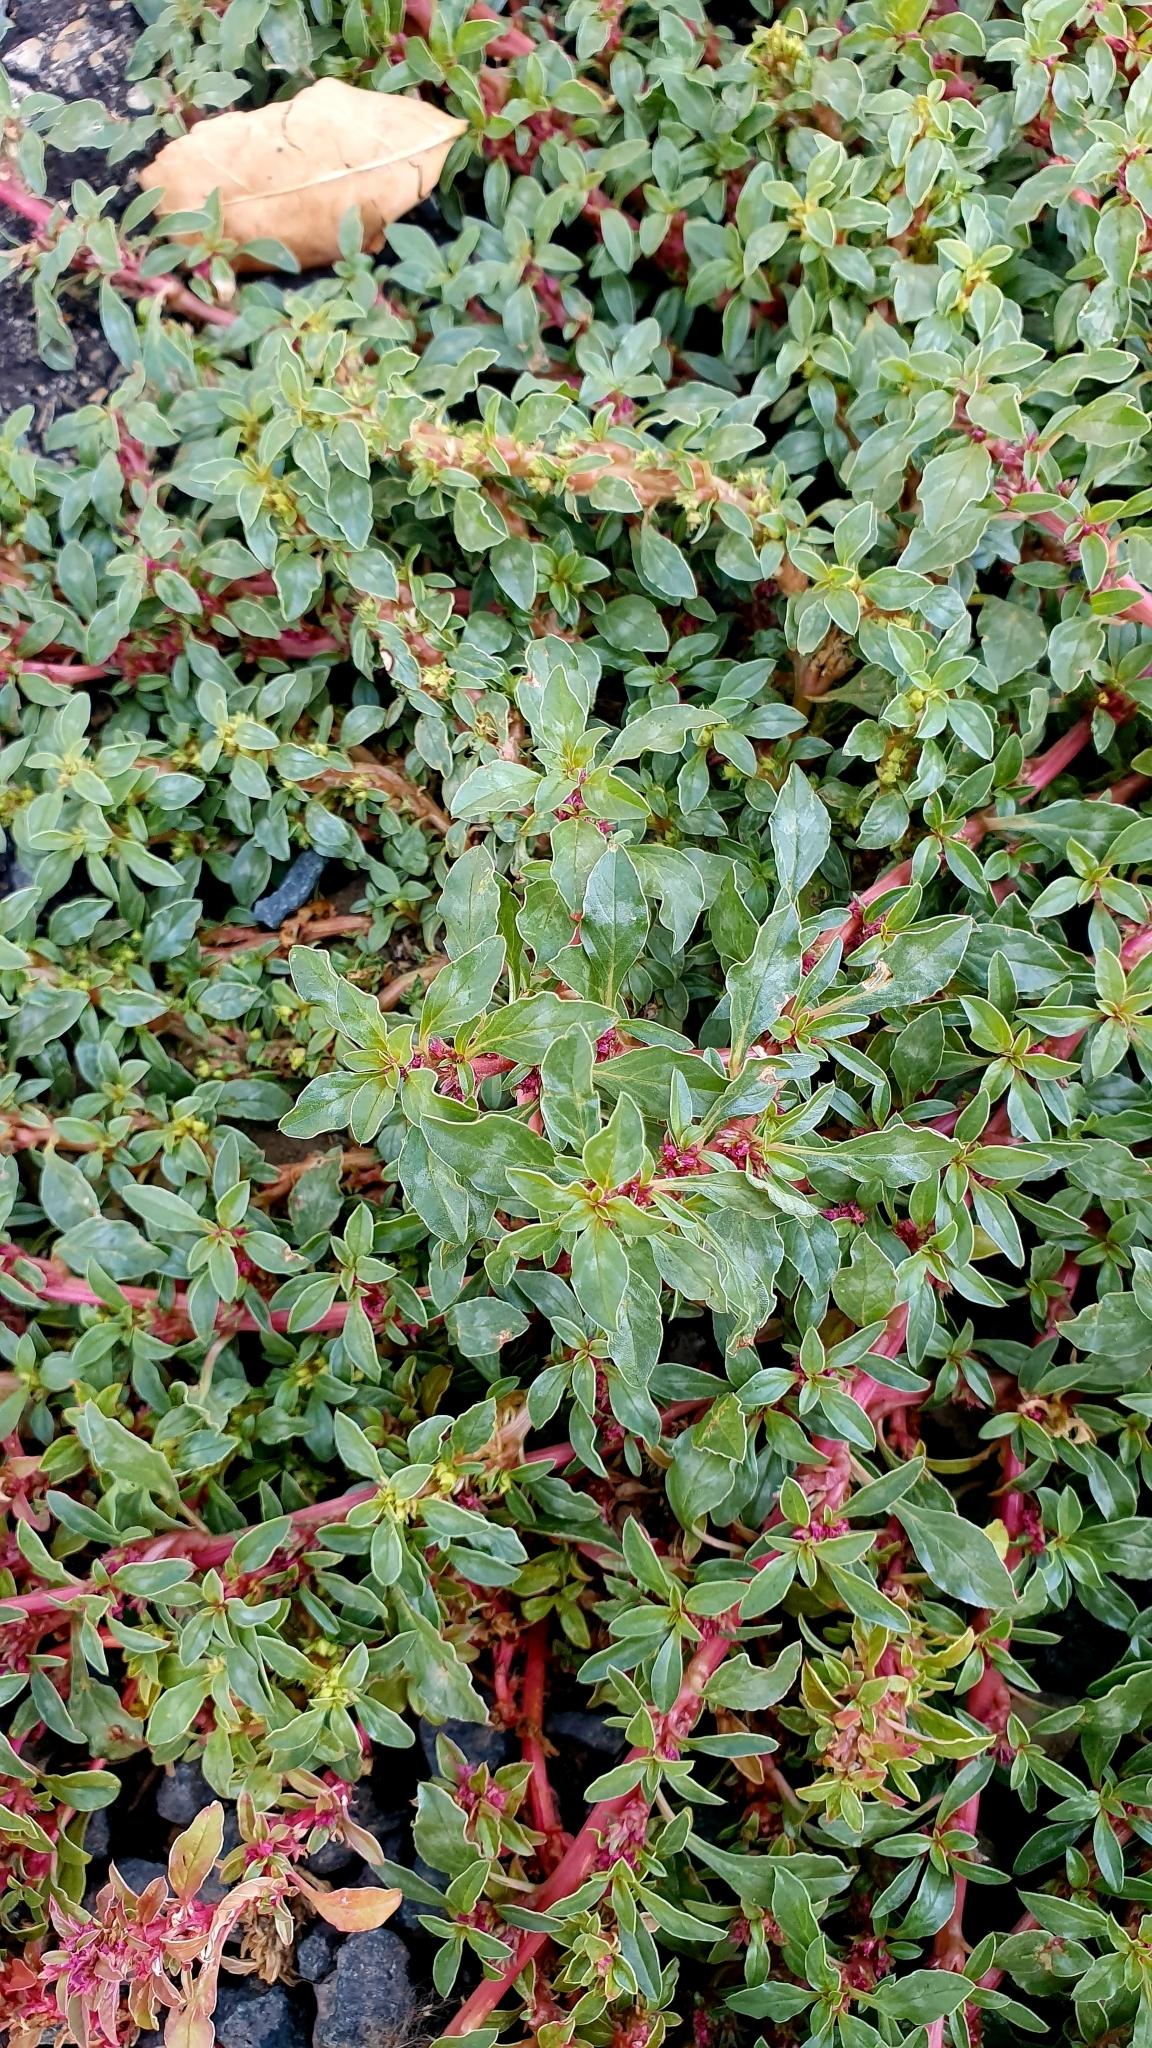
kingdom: Plantae
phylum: Tracheophyta
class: Magnoliopsida
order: Caryophyllales
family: Amaranthaceae
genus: Amaranthus
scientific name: Amaranthus blitoides
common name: Prostrate pigweed
